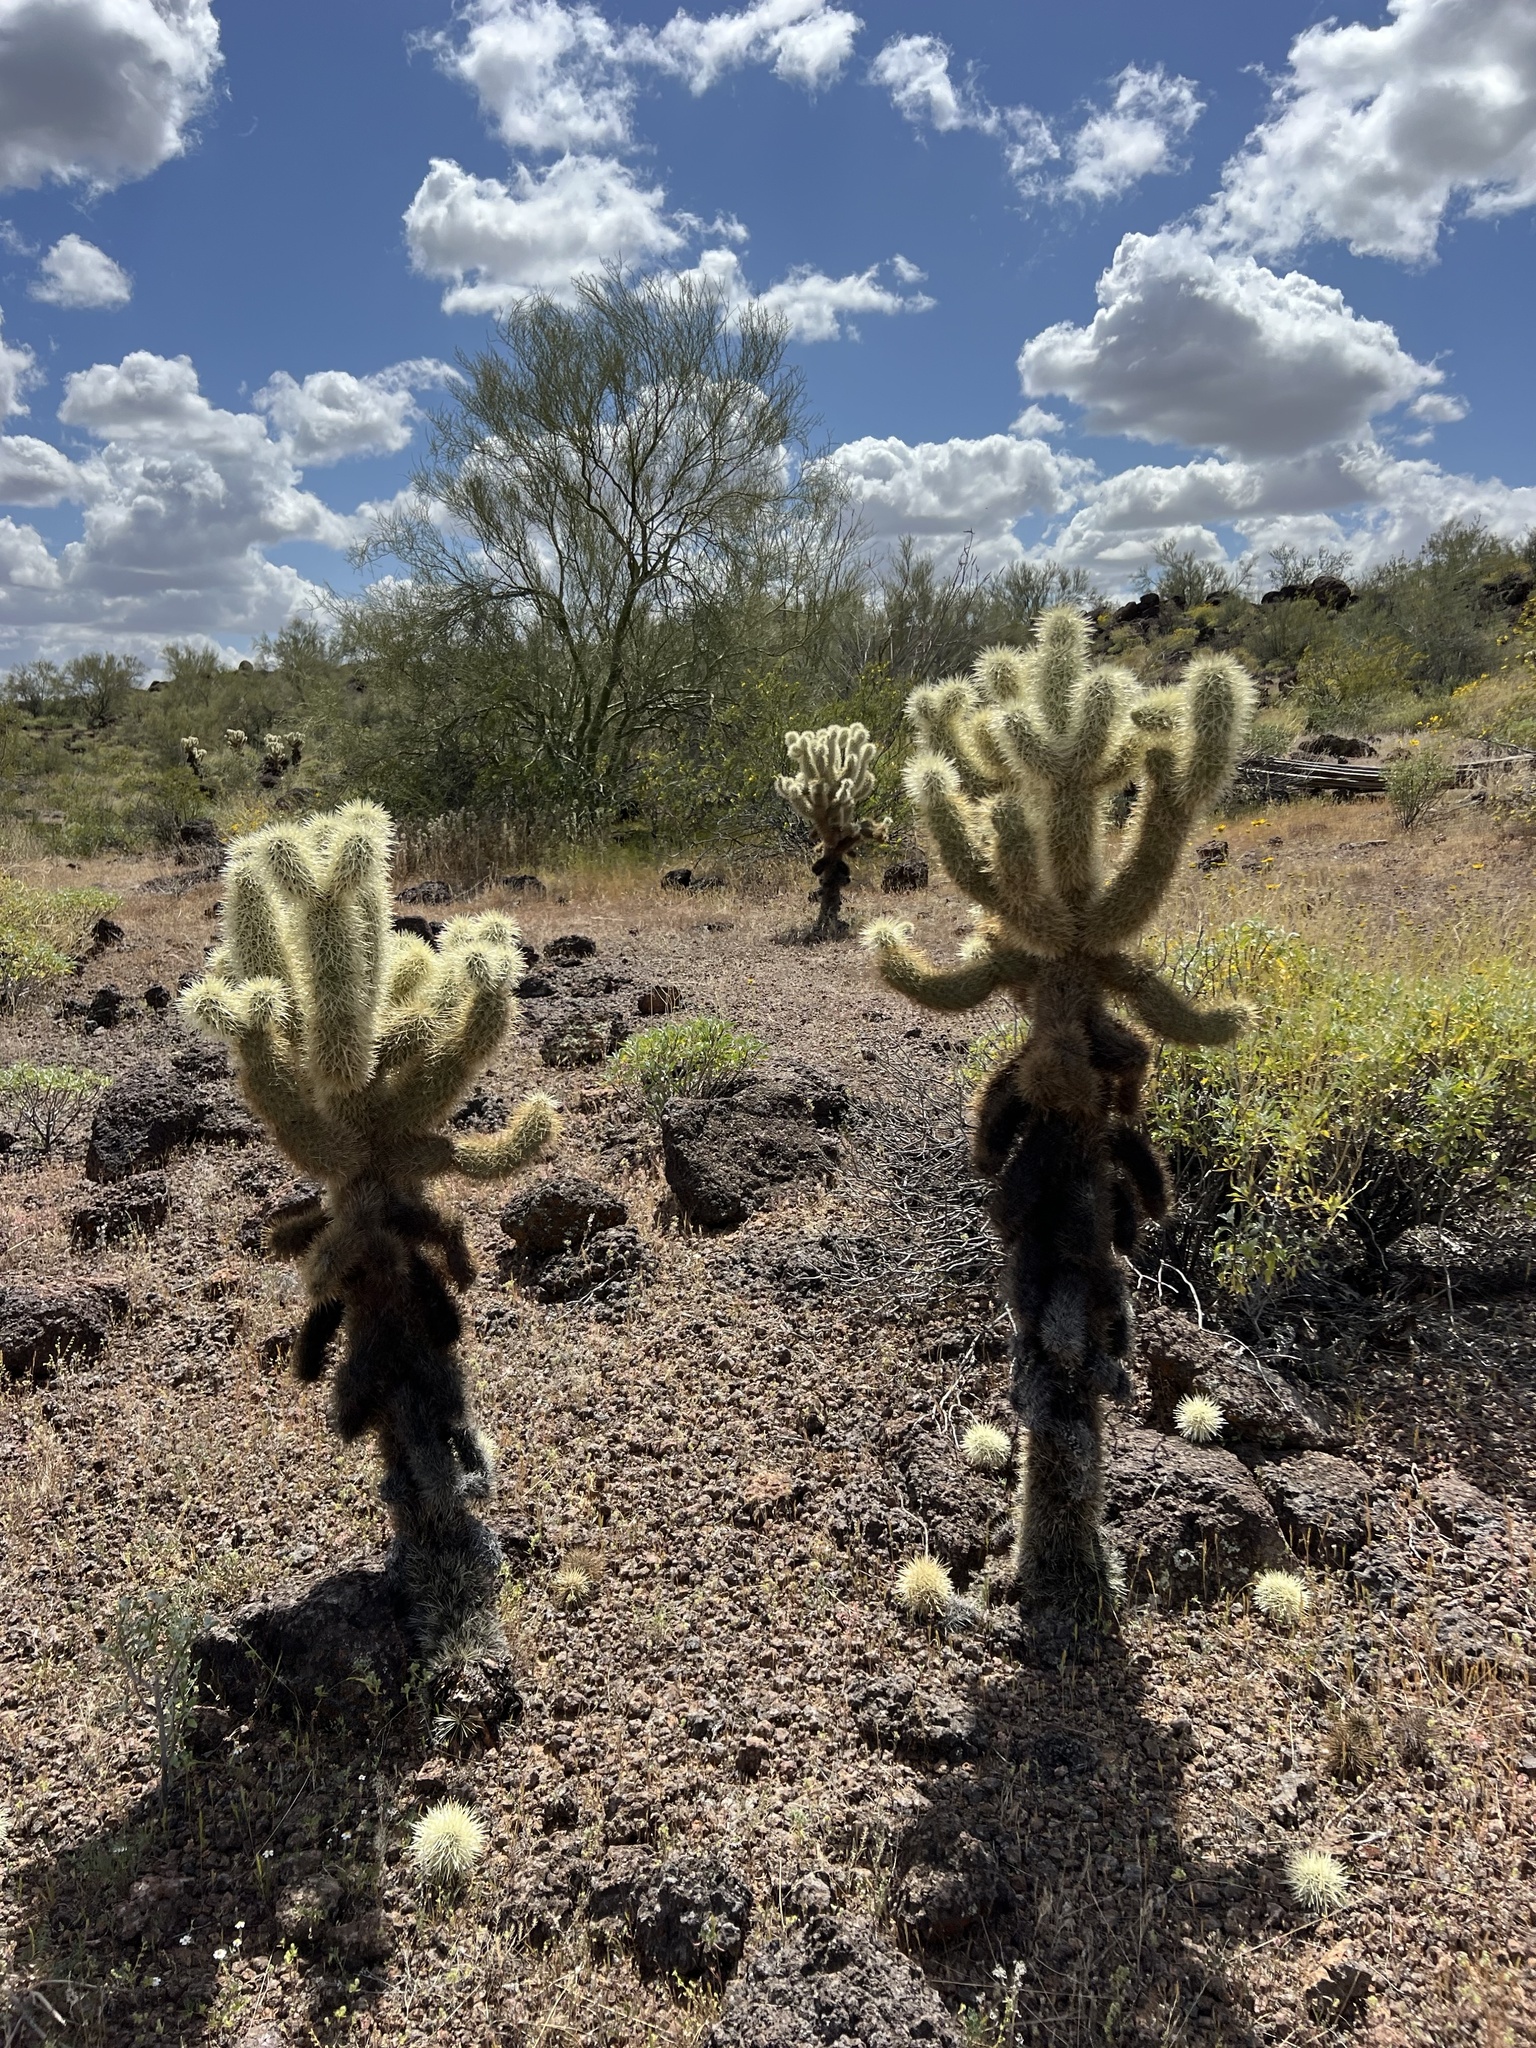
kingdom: Plantae
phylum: Tracheophyta
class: Magnoliopsida
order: Caryophyllales
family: Cactaceae
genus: Cylindropuntia
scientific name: Cylindropuntia fosbergii
